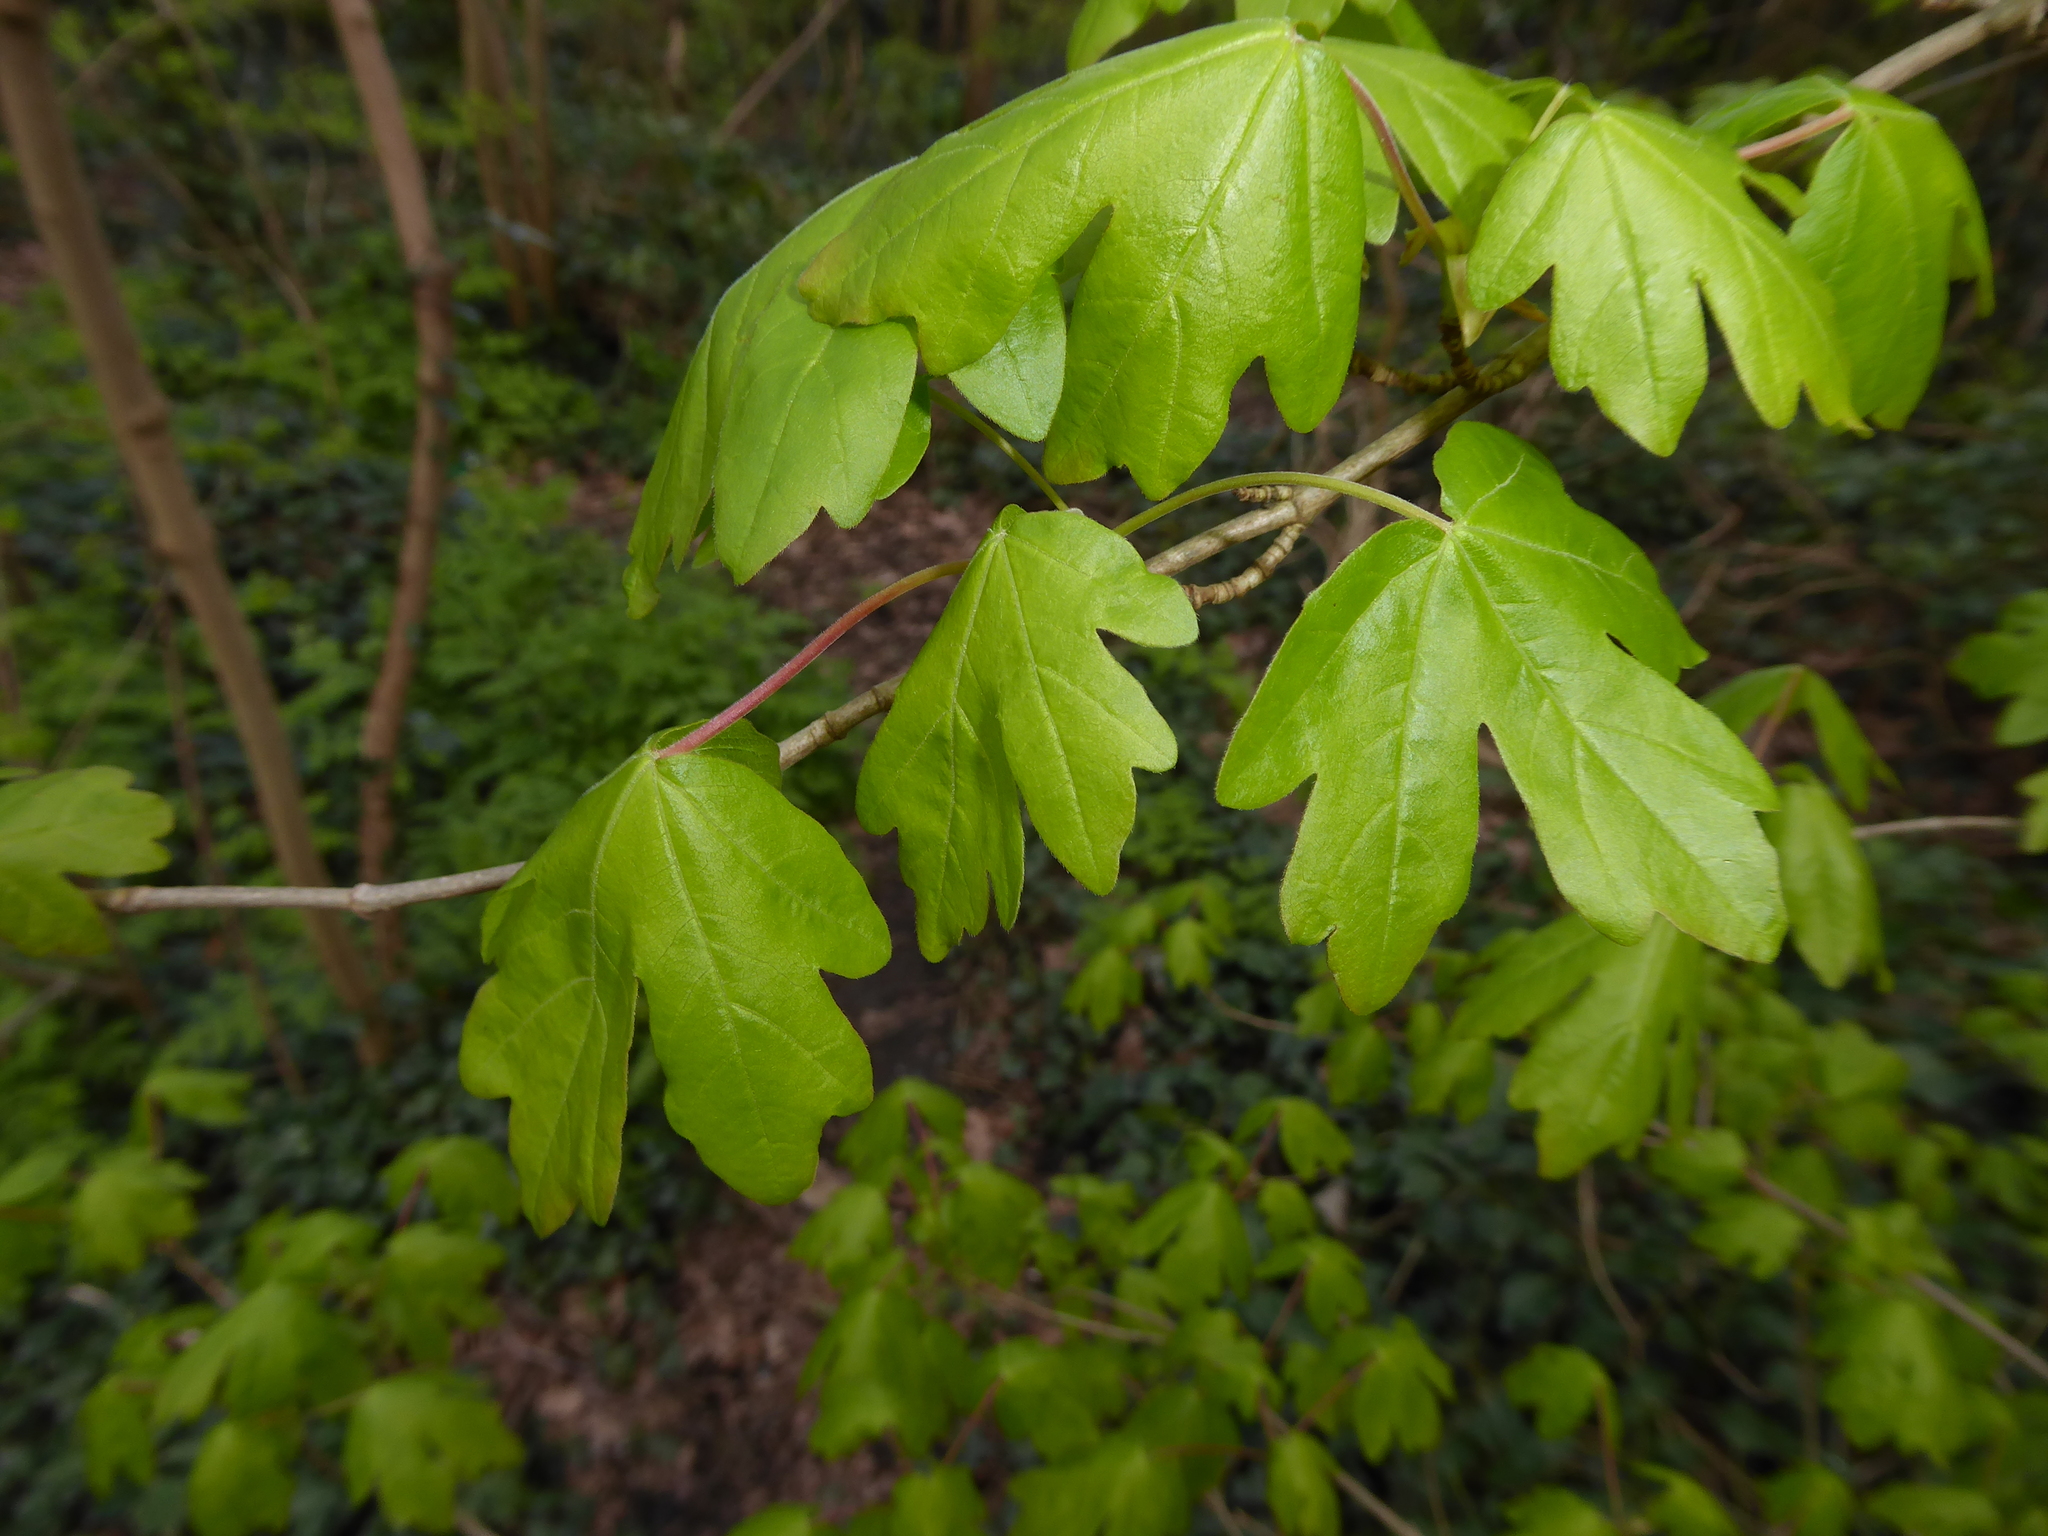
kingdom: Plantae
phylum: Tracheophyta
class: Magnoliopsida
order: Sapindales
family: Sapindaceae
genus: Acer
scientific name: Acer campestre
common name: Field maple
